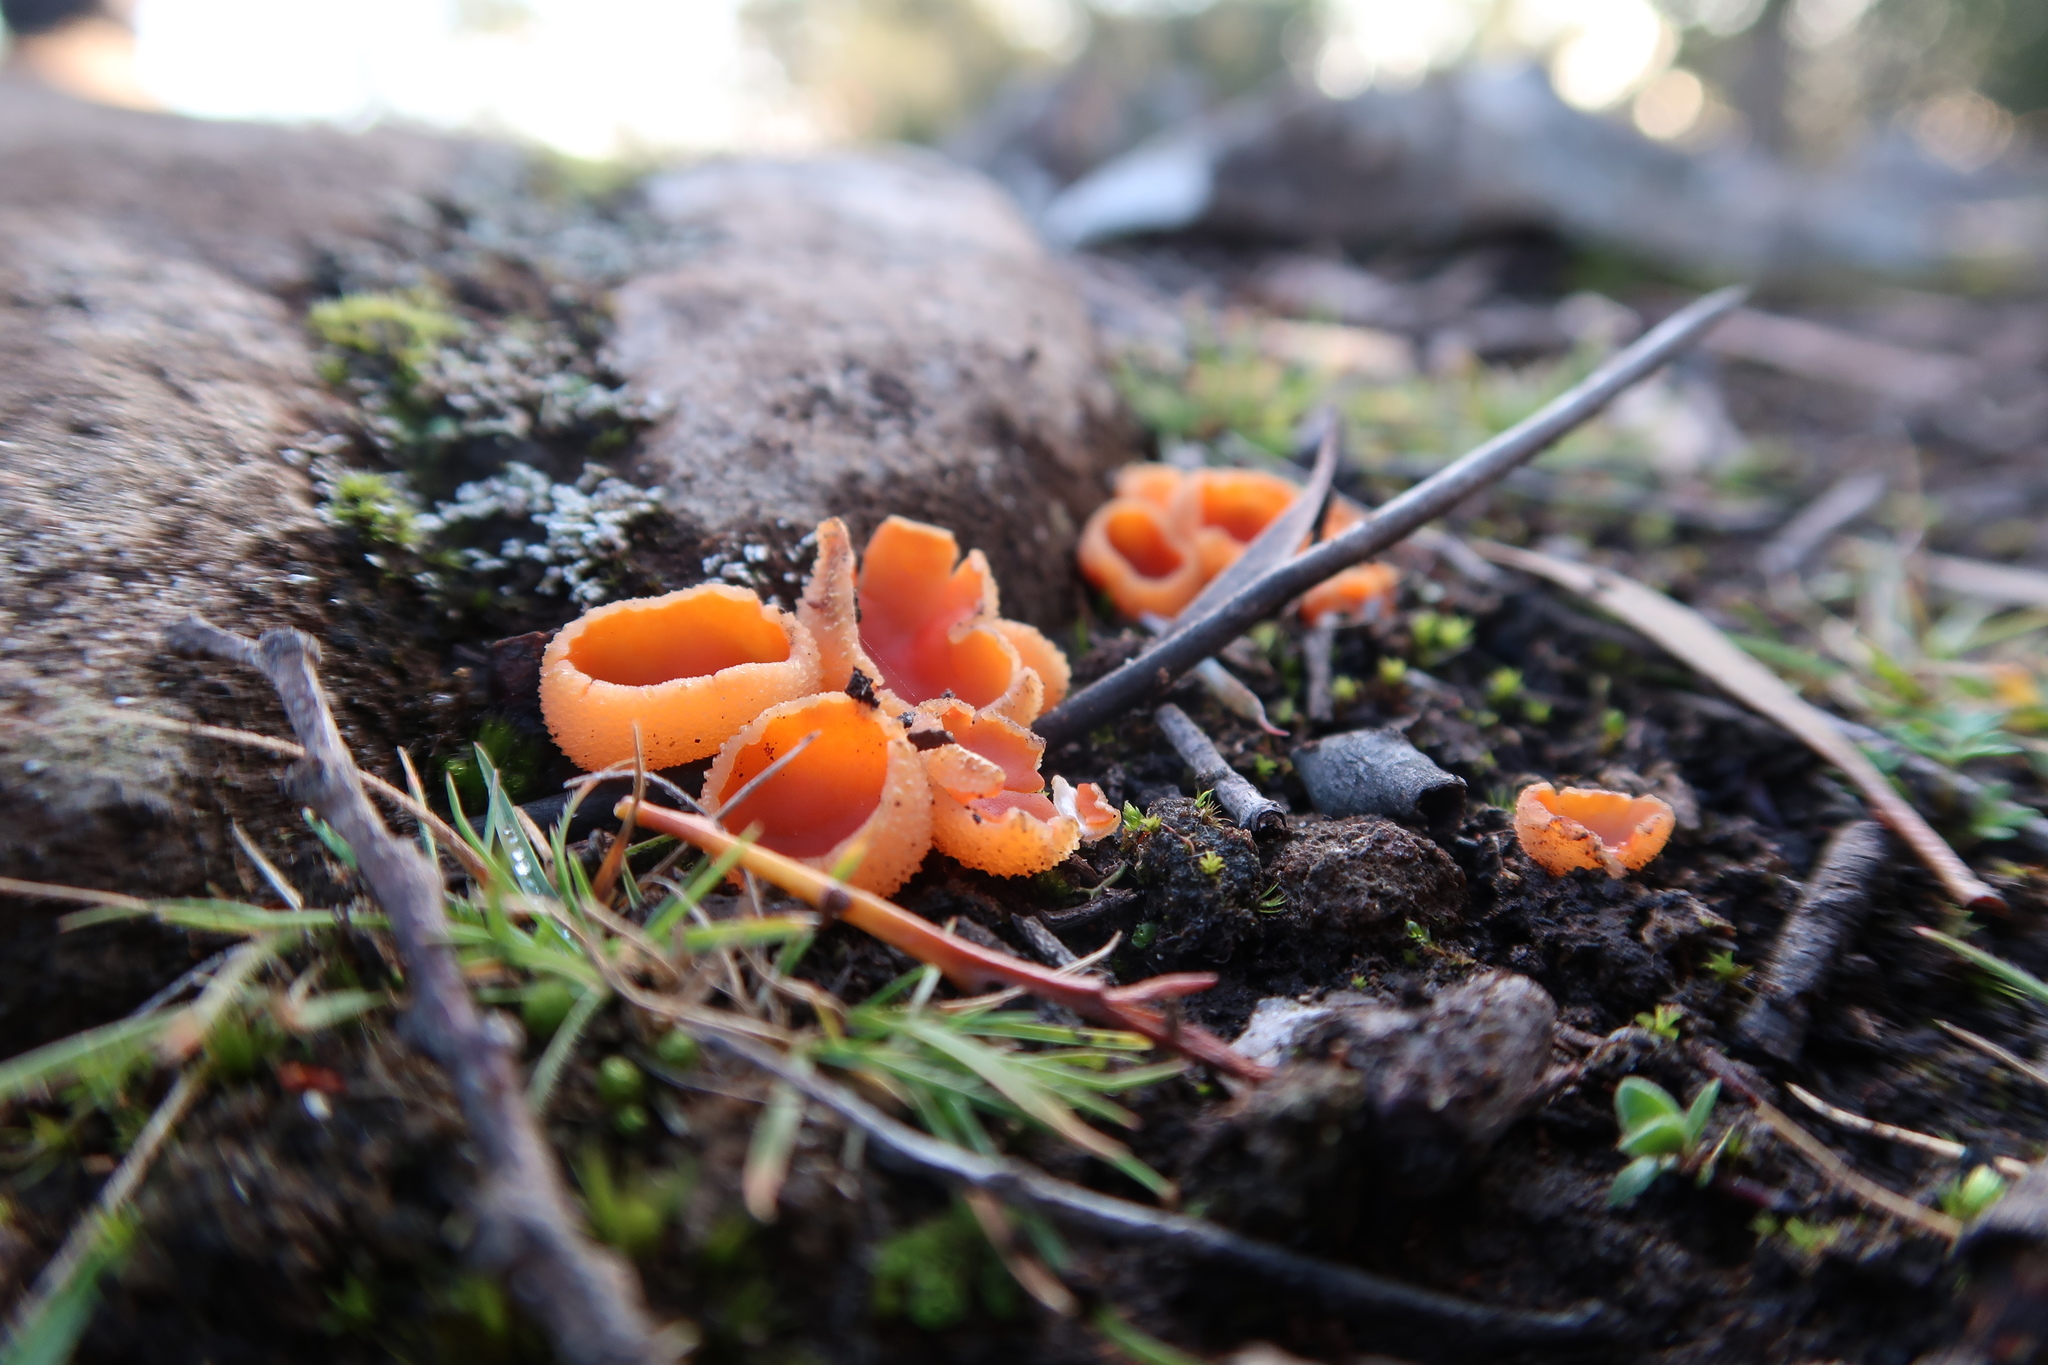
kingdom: Fungi
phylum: Ascomycota
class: Pezizomycetes
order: Pezizales
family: Pyronemataceae
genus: Sowerbyella
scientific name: Sowerbyella rhenana
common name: Stalked orange peel fungus
